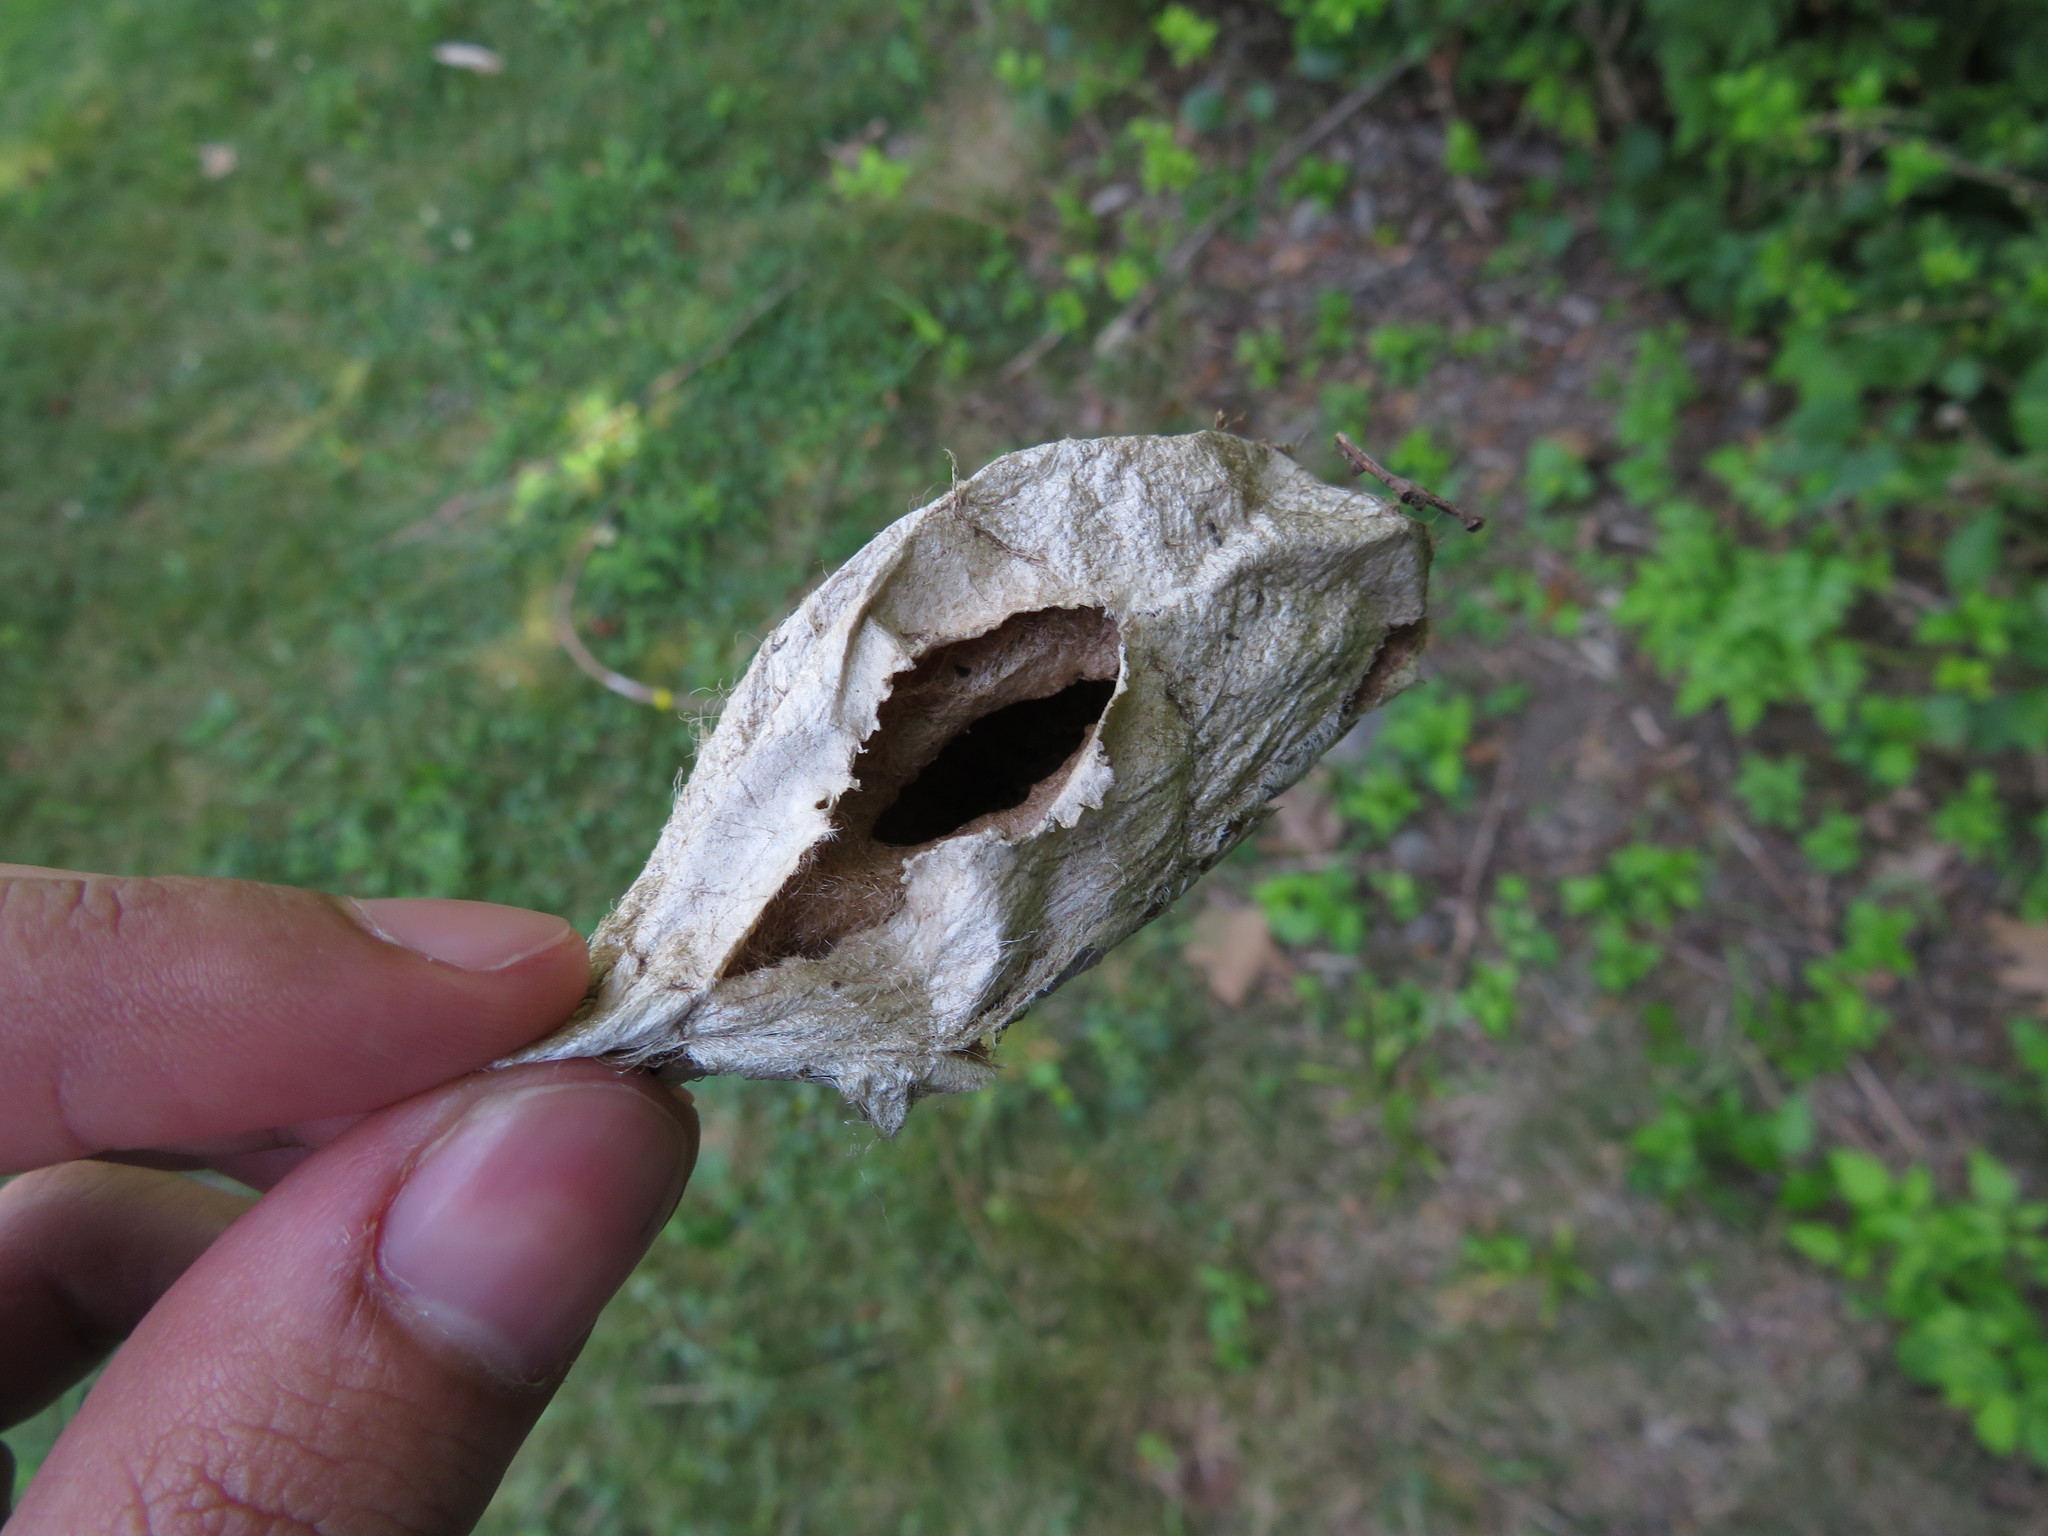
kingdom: Animalia
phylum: Arthropoda
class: Insecta
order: Lepidoptera
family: Saturniidae
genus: Hyalophora
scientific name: Hyalophora cecropia
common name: Cecropia silkmoth
